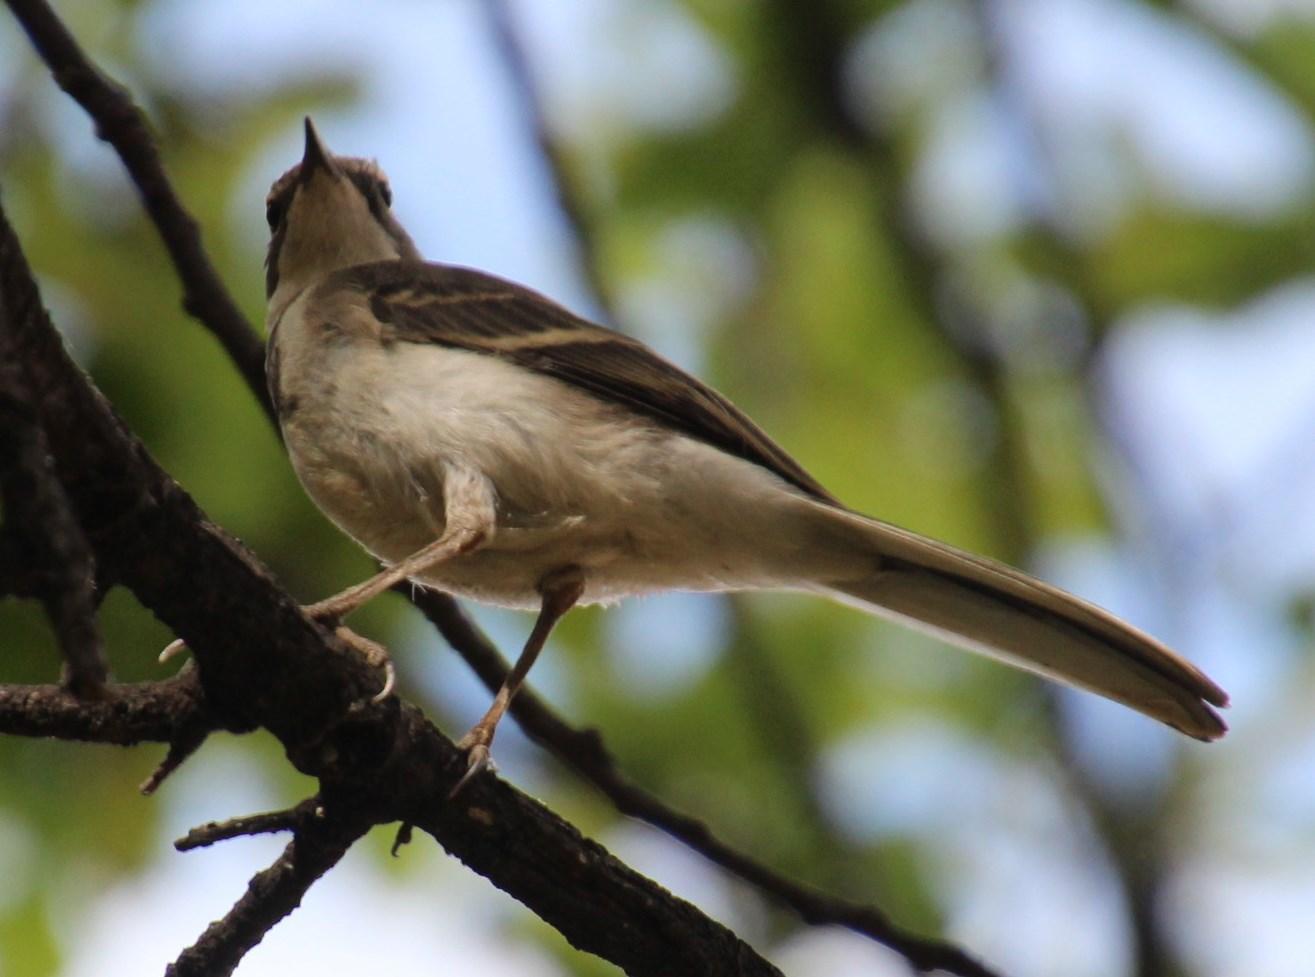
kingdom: Animalia
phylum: Chordata
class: Aves
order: Passeriformes
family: Motacillidae
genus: Motacilla
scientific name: Motacilla capensis
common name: Cape wagtail
